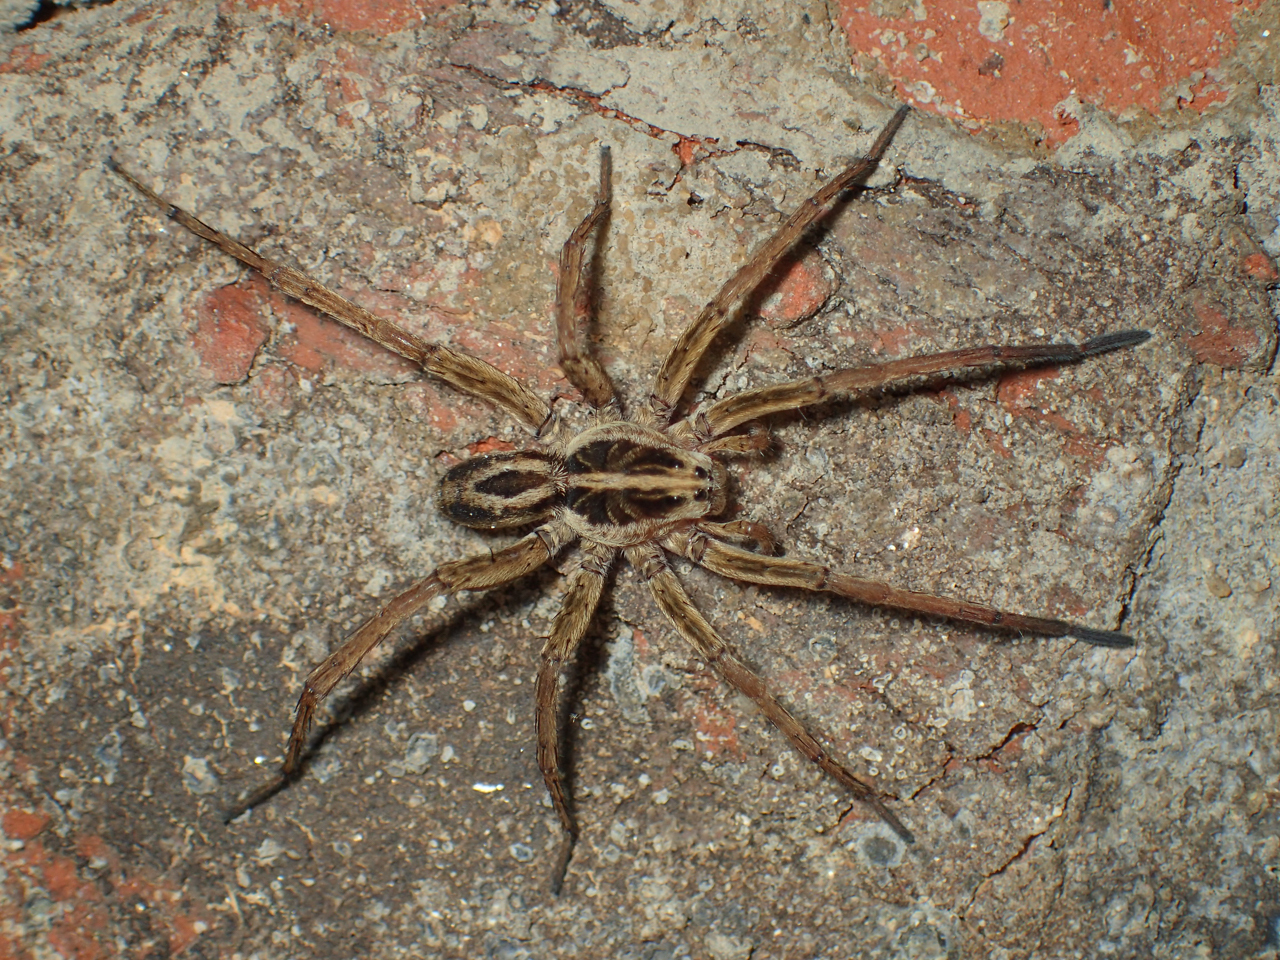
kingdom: Animalia
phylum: Arthropoda
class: Arachnida
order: Araneae
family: Lycosidae
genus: Tigrosa
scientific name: Tigrosa annexa
